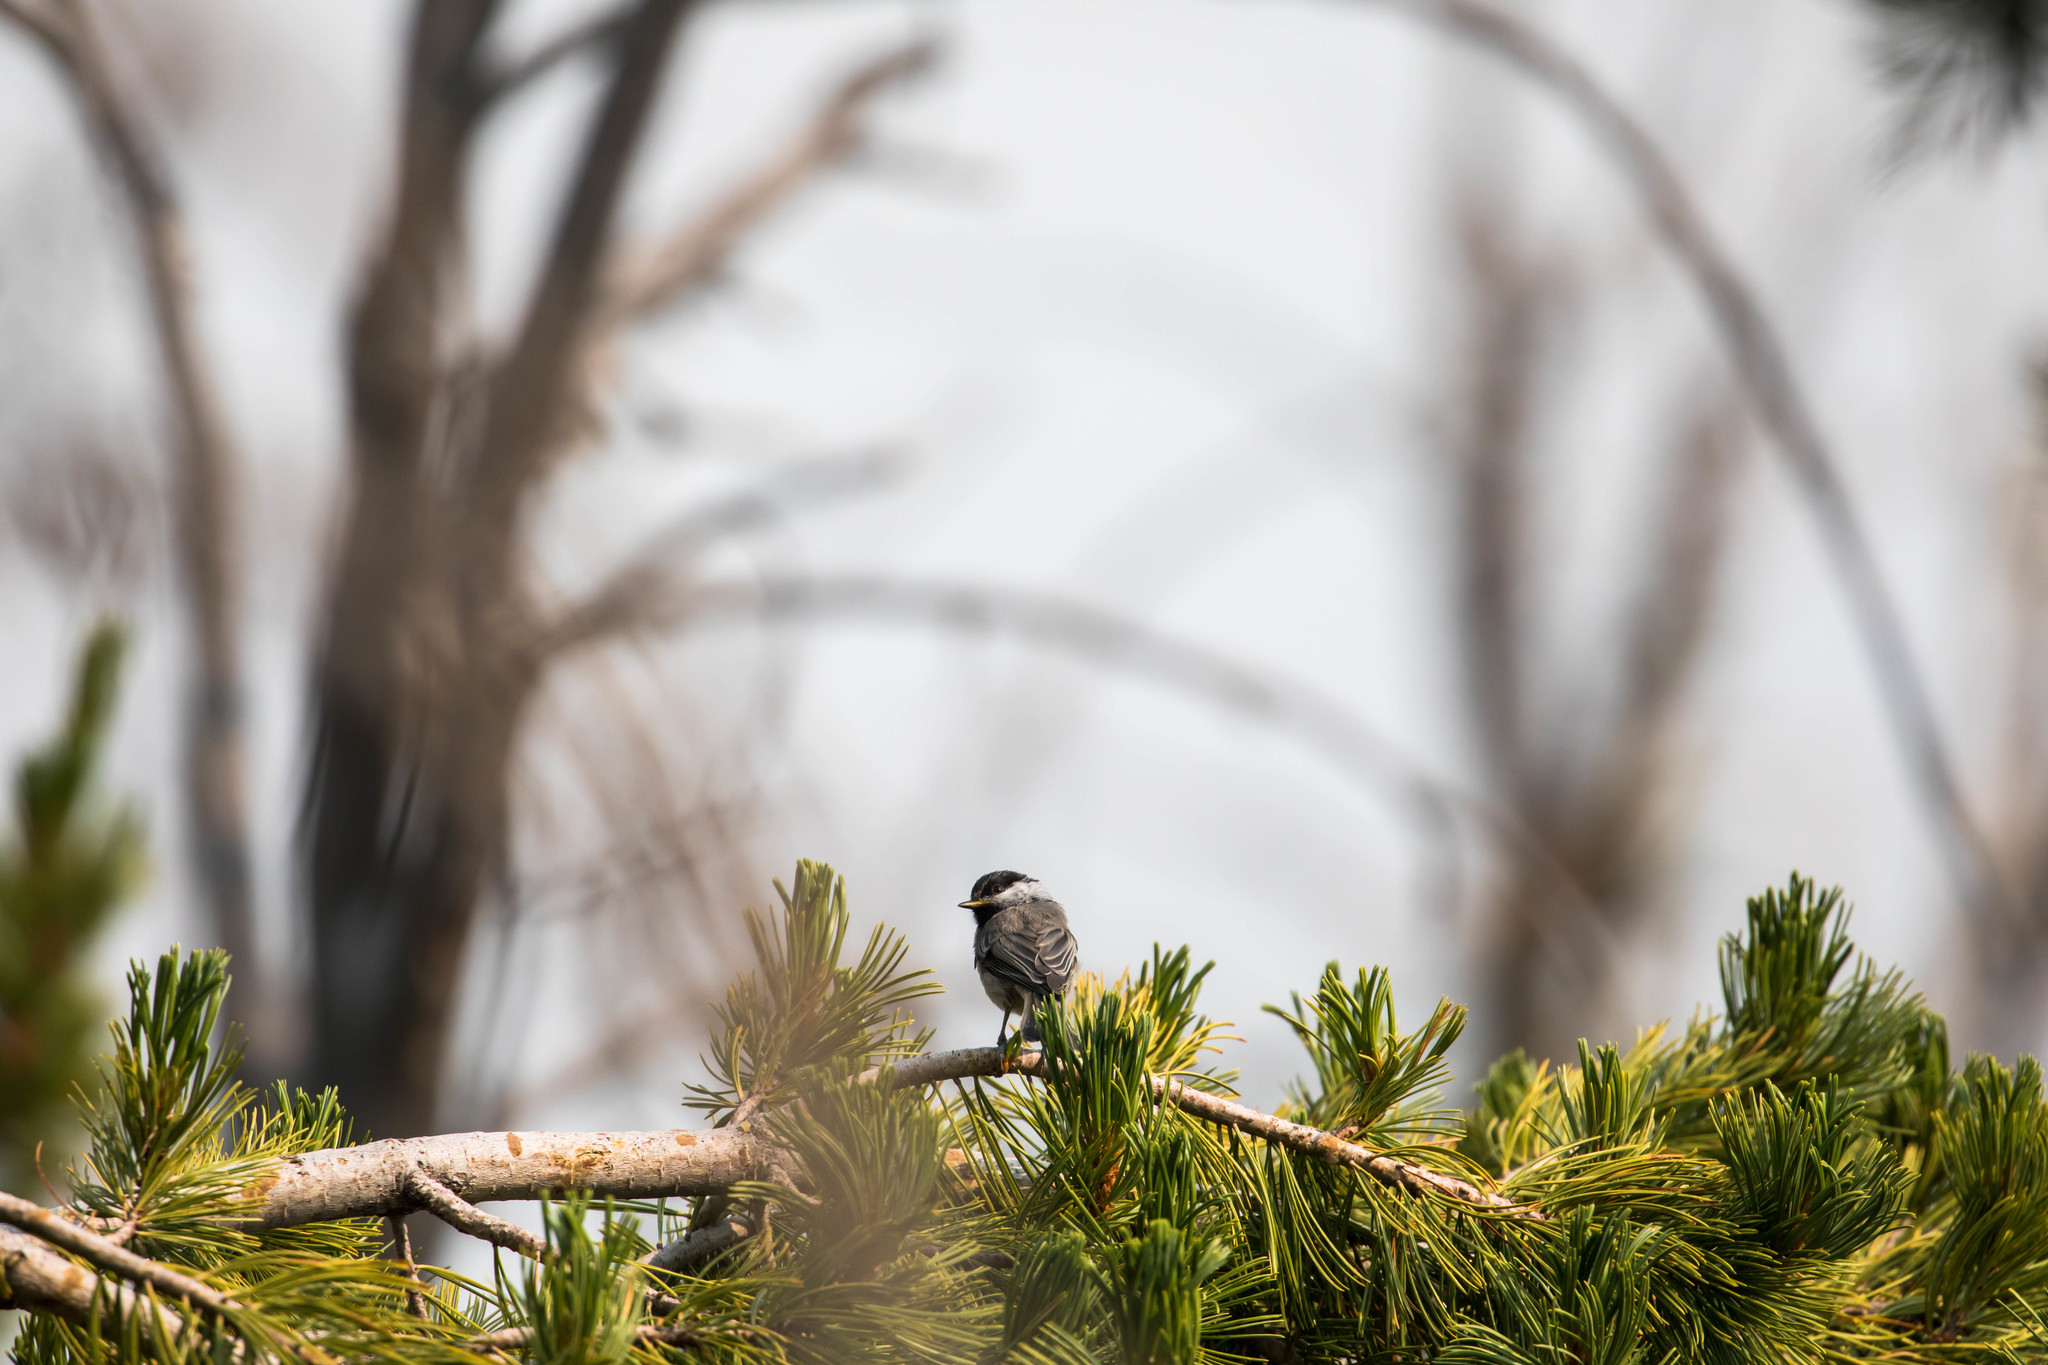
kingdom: Animalia
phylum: Chordata
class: Aves
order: Passeriformes
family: Paridae
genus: Poecile
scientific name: Poecile atricapillus
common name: Black-capped chickadee
